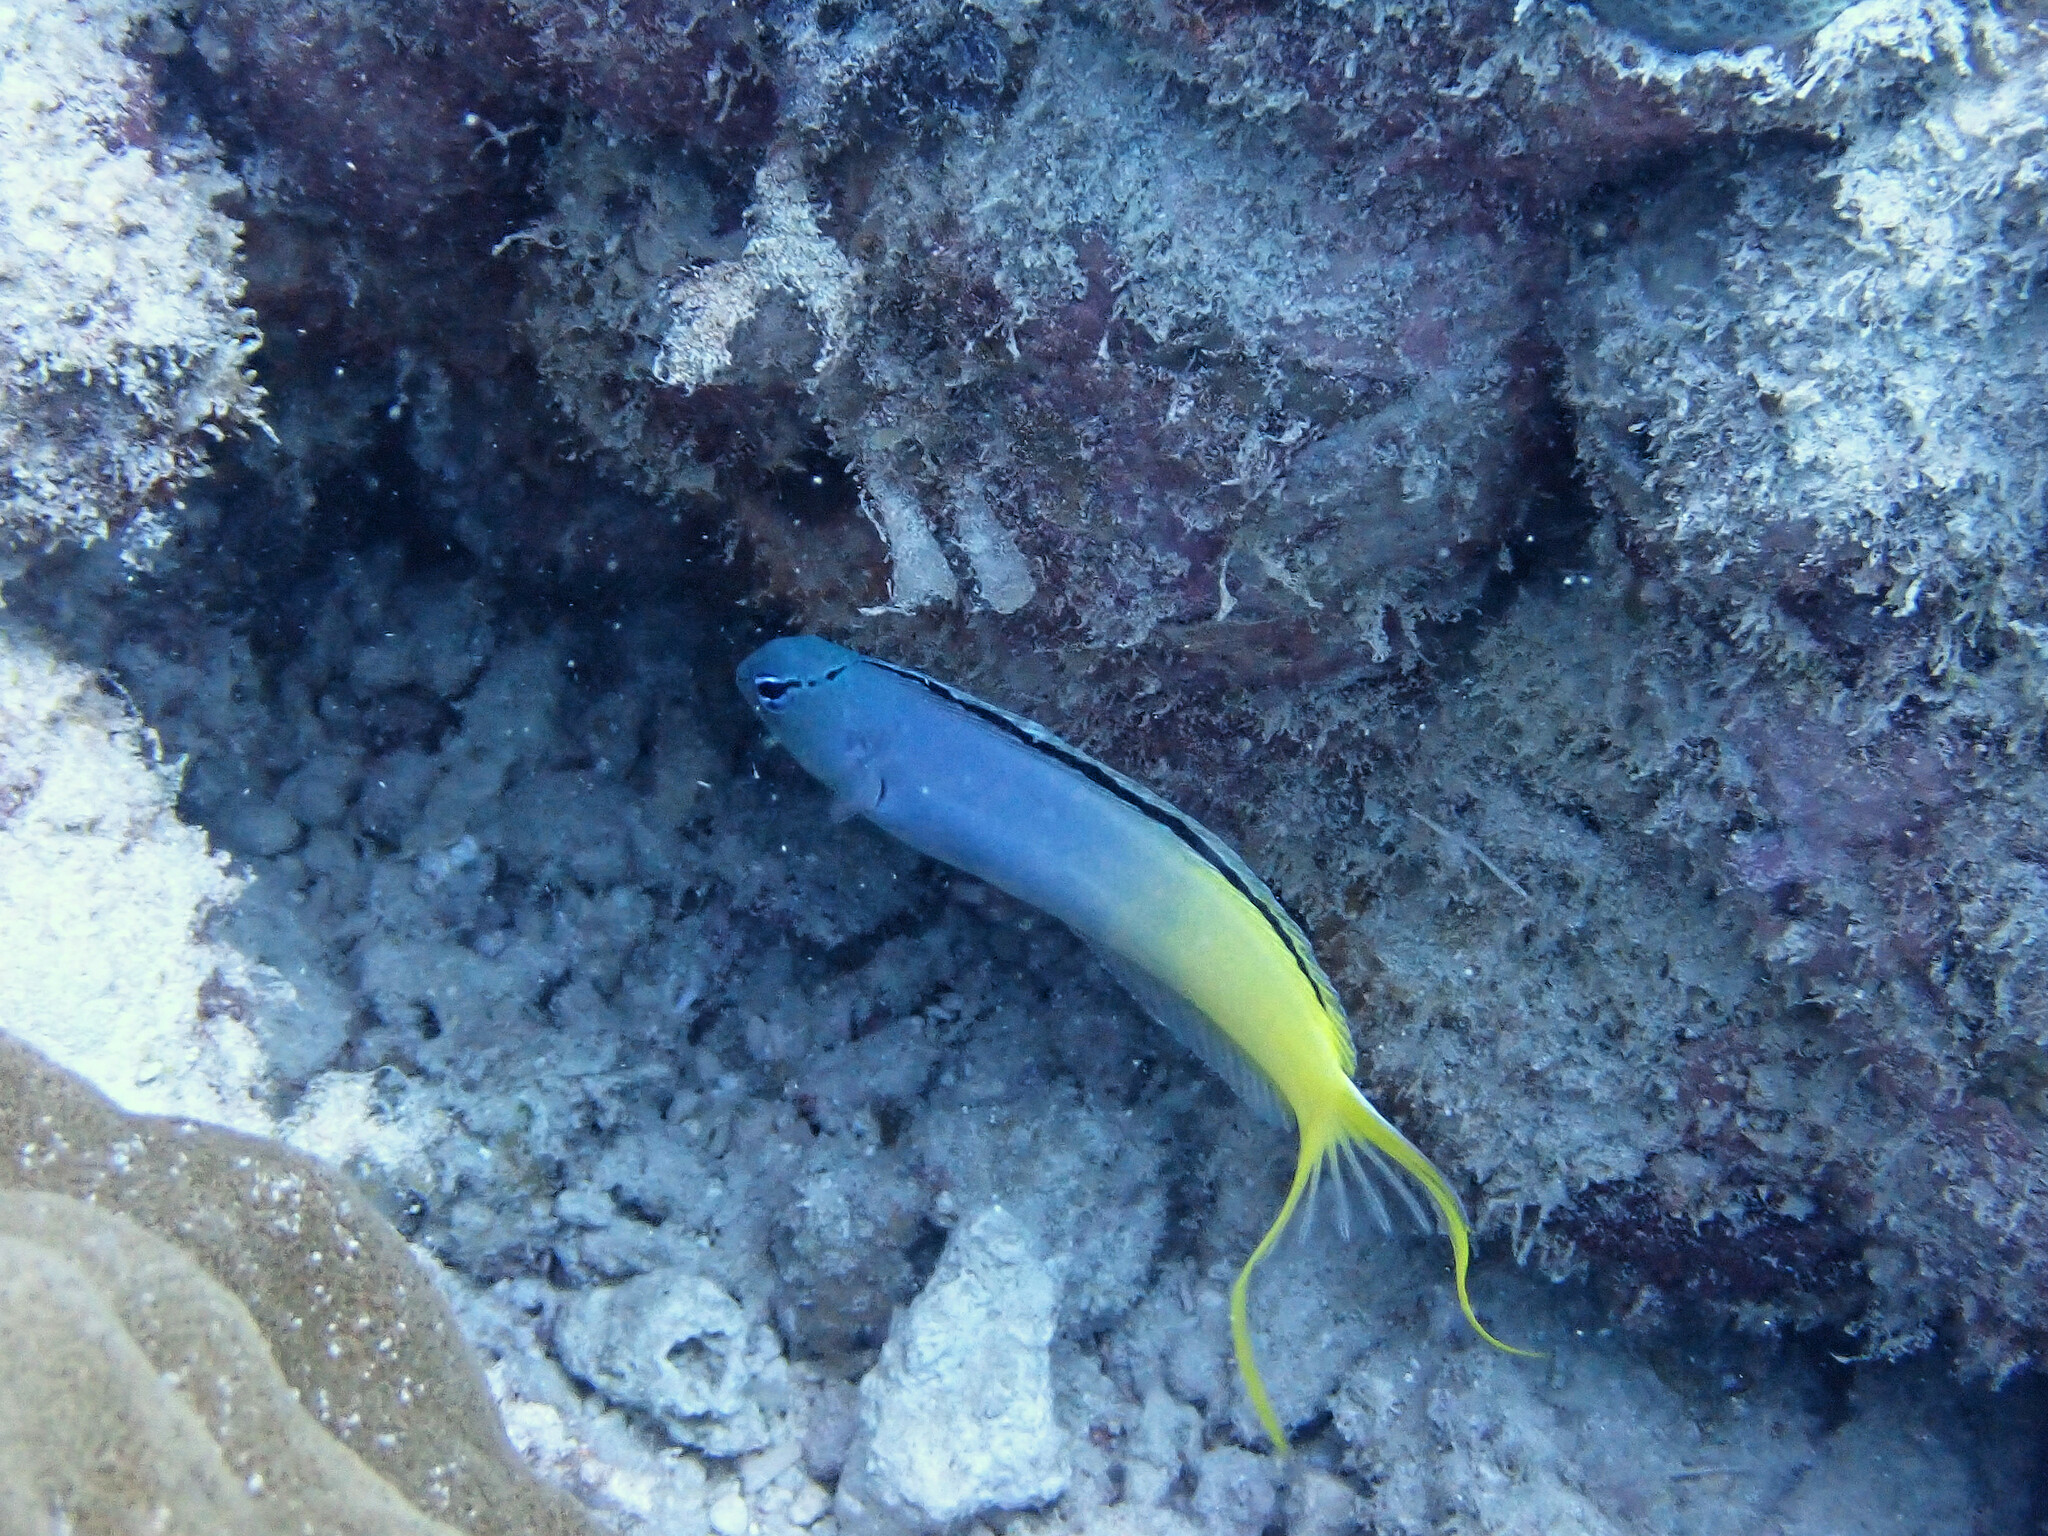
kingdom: Animalia
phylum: Chordata
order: Perciformes
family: Blenniidae
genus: Meiacanthus
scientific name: Meiacanthus atrodorsalis
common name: Eye-lash harptail-blenny
